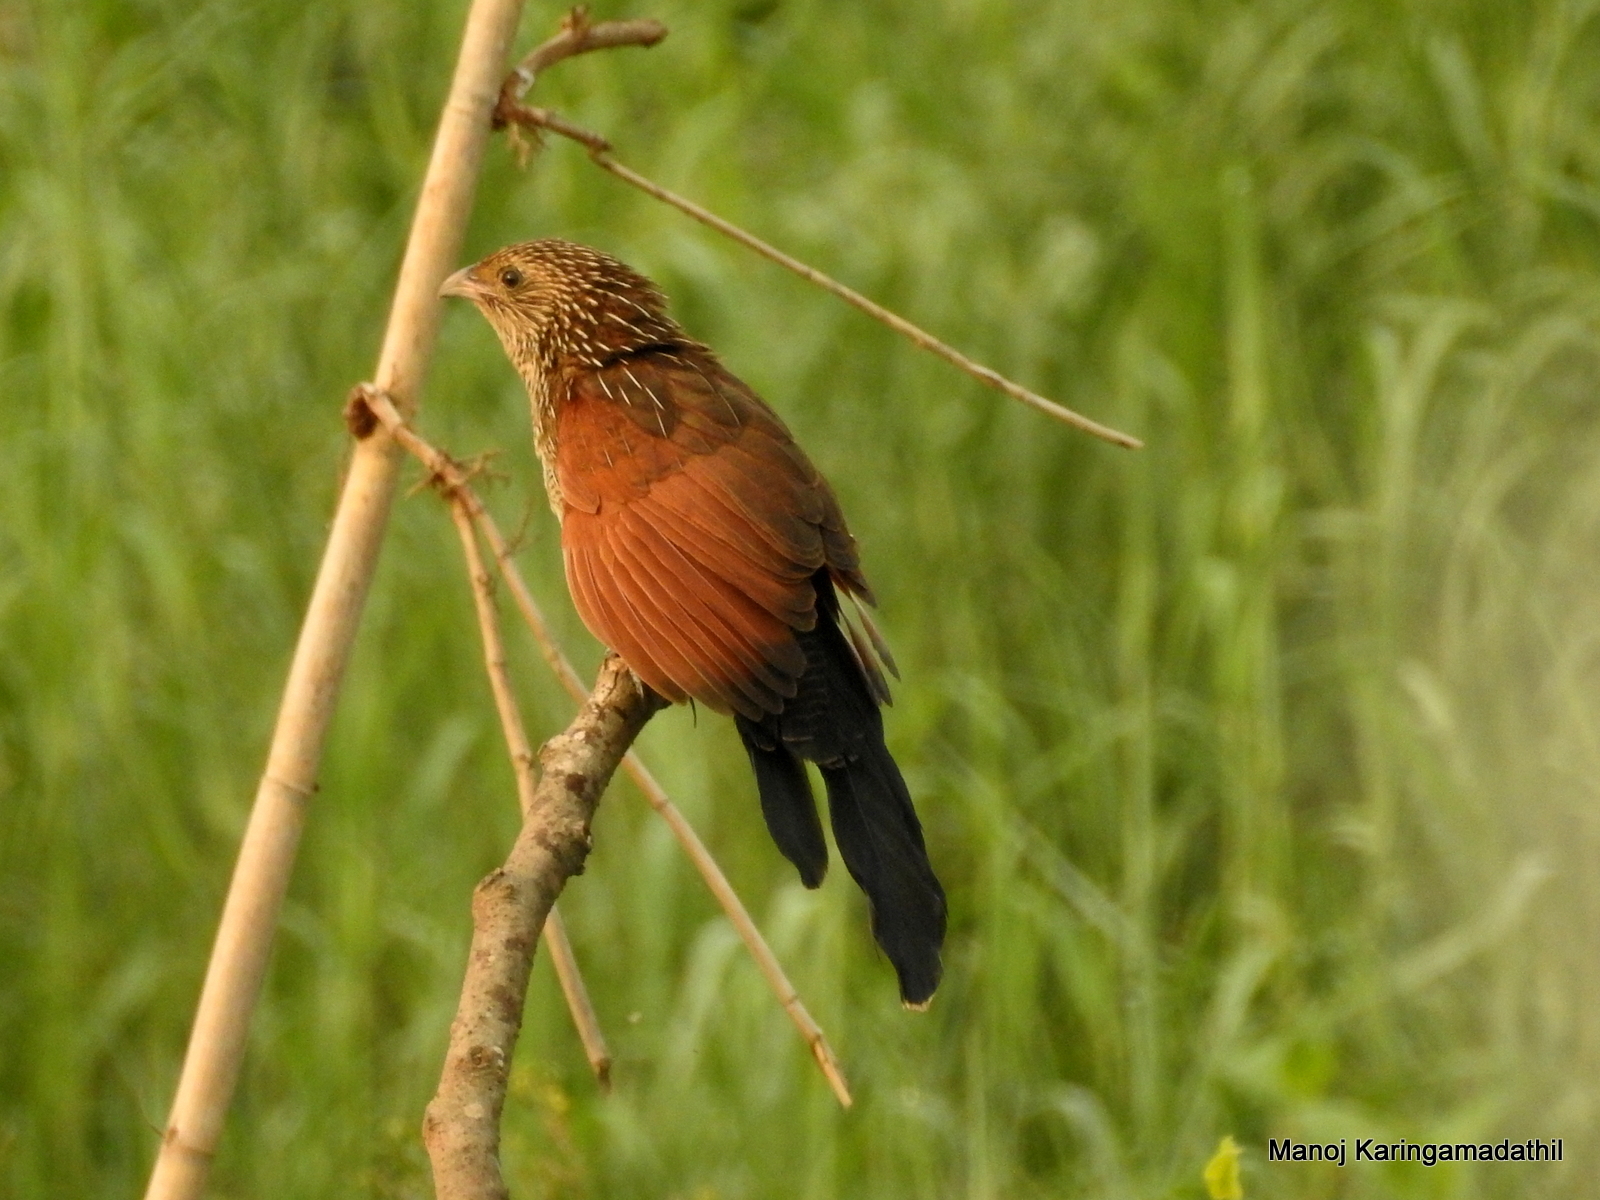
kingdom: Animalia
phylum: Chordata
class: Aves
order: Cuculiformes
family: Cuculidae
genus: Centropus
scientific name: Centropus bengalensis
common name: Lesser coucal
